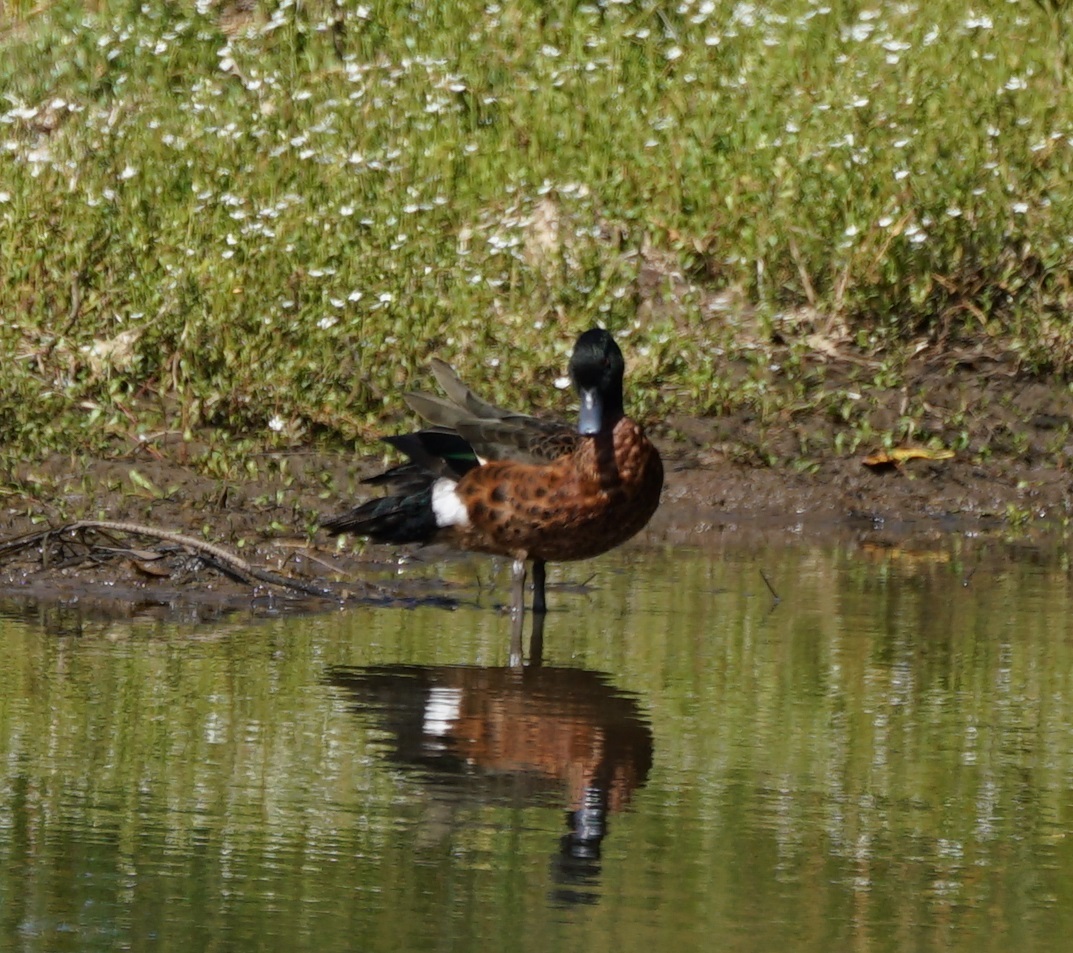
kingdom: Animalia
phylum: Chordata
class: Aves
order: Anseriformes
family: Anatidae
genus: Anas
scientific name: Anas castanea
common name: Chestnut teal
